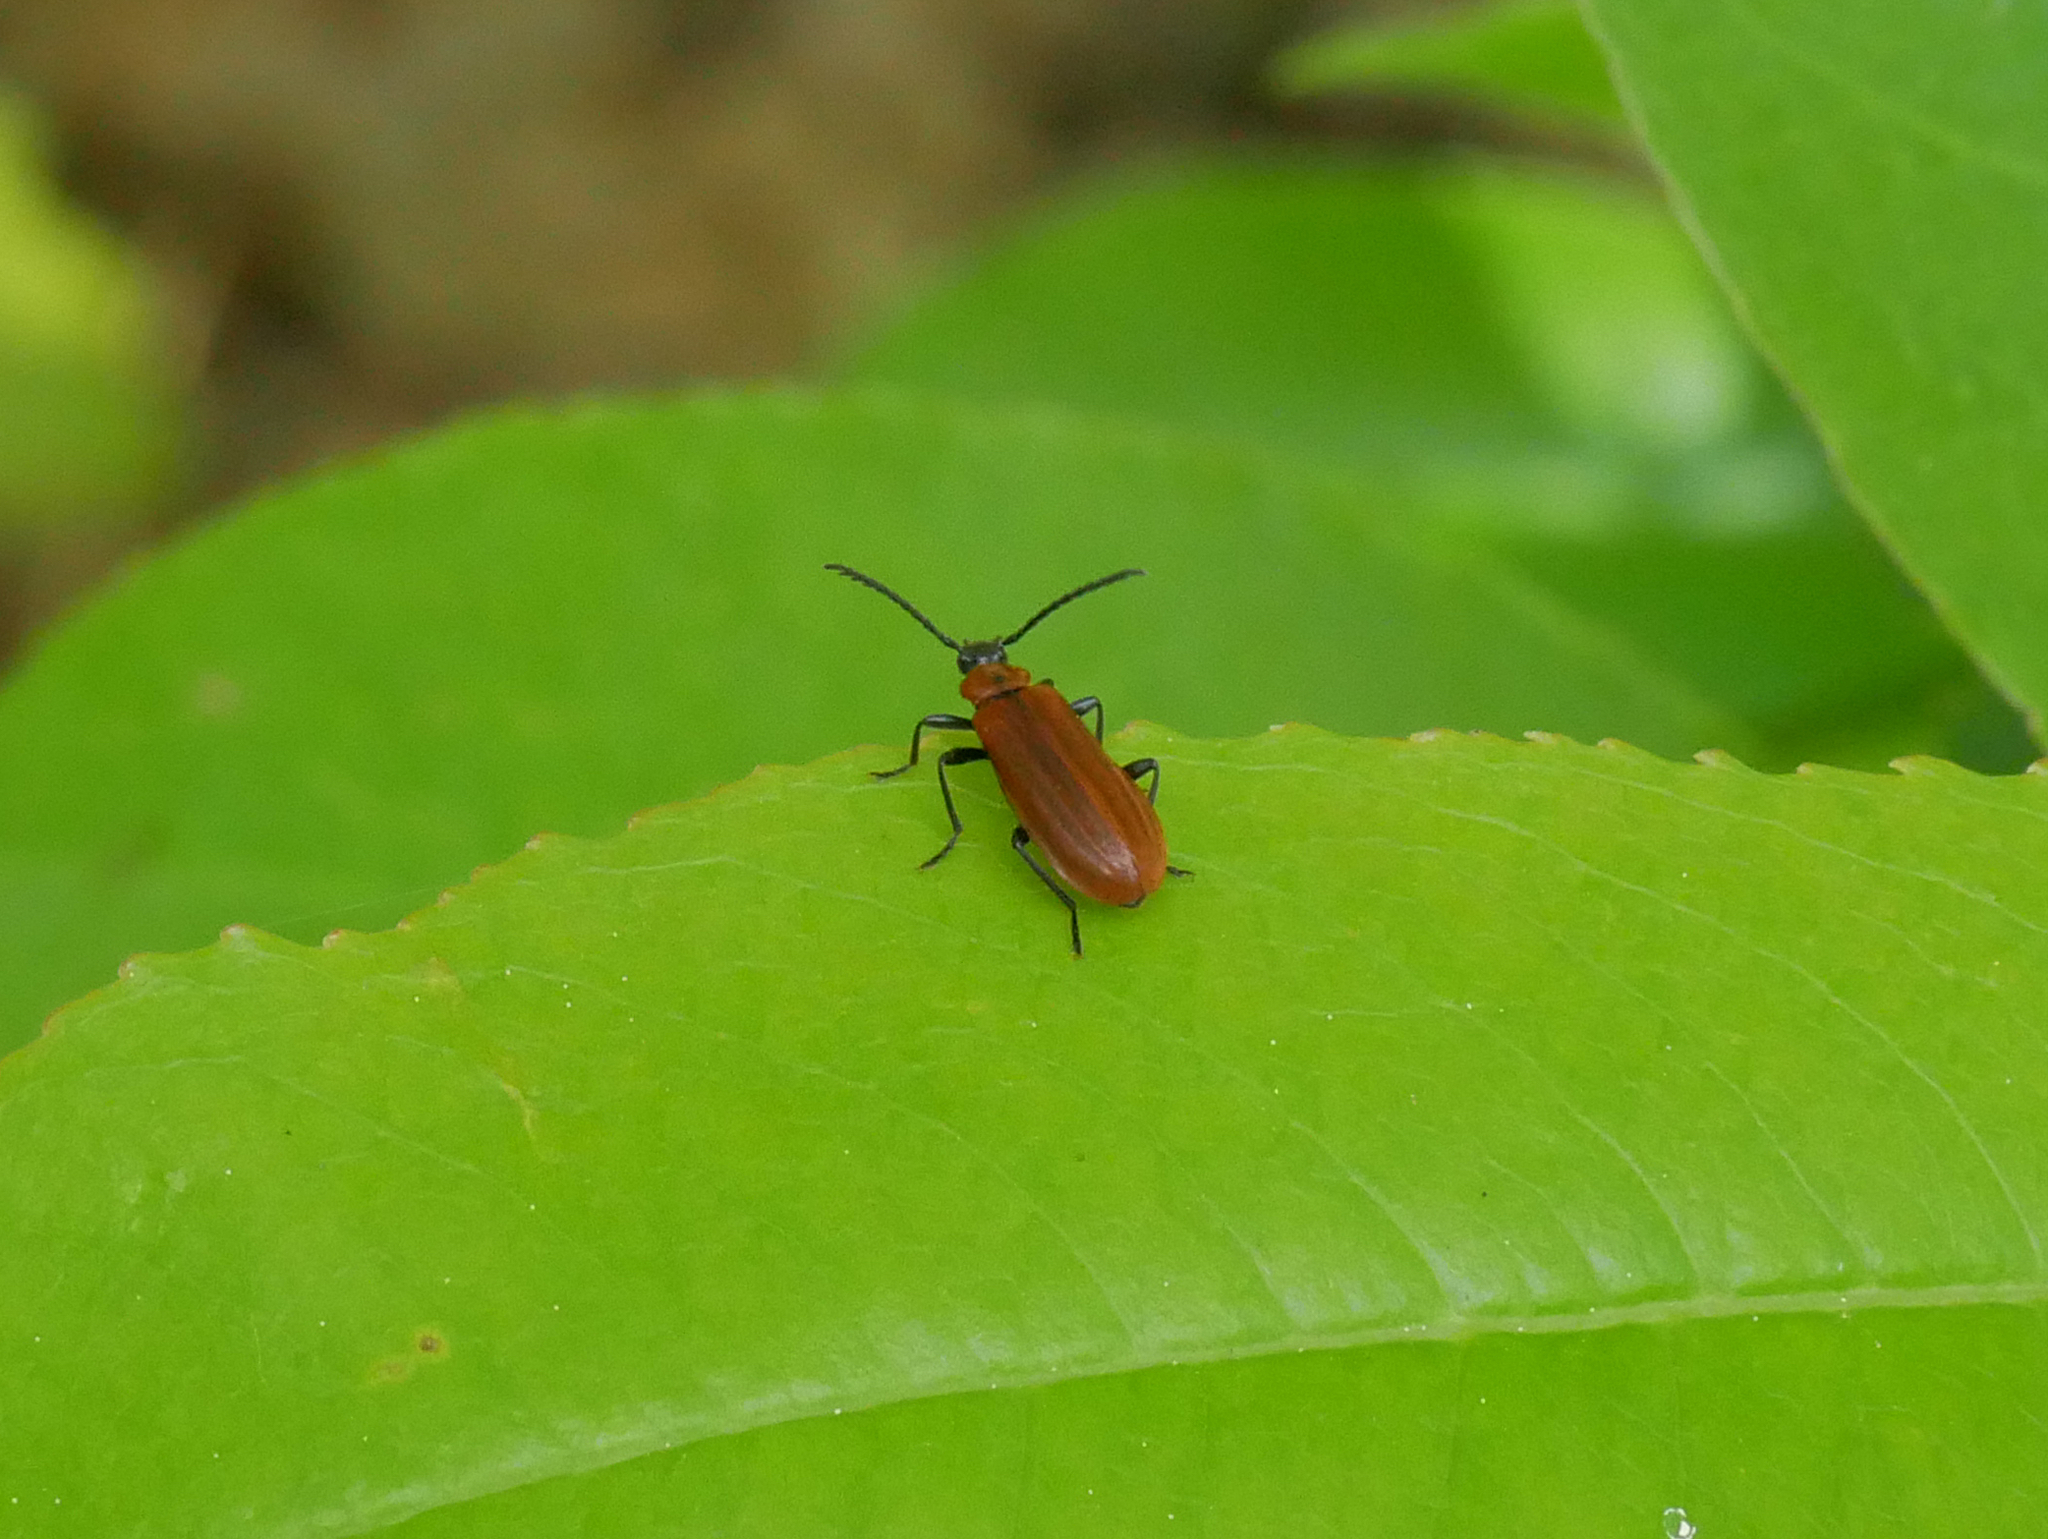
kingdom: Animalia
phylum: Arthropoda
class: Insecta
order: Coleoptera
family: Pyrochroidae
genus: Schizotus
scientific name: Schizotus pectinicornis
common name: Scarce cardinal beetle
